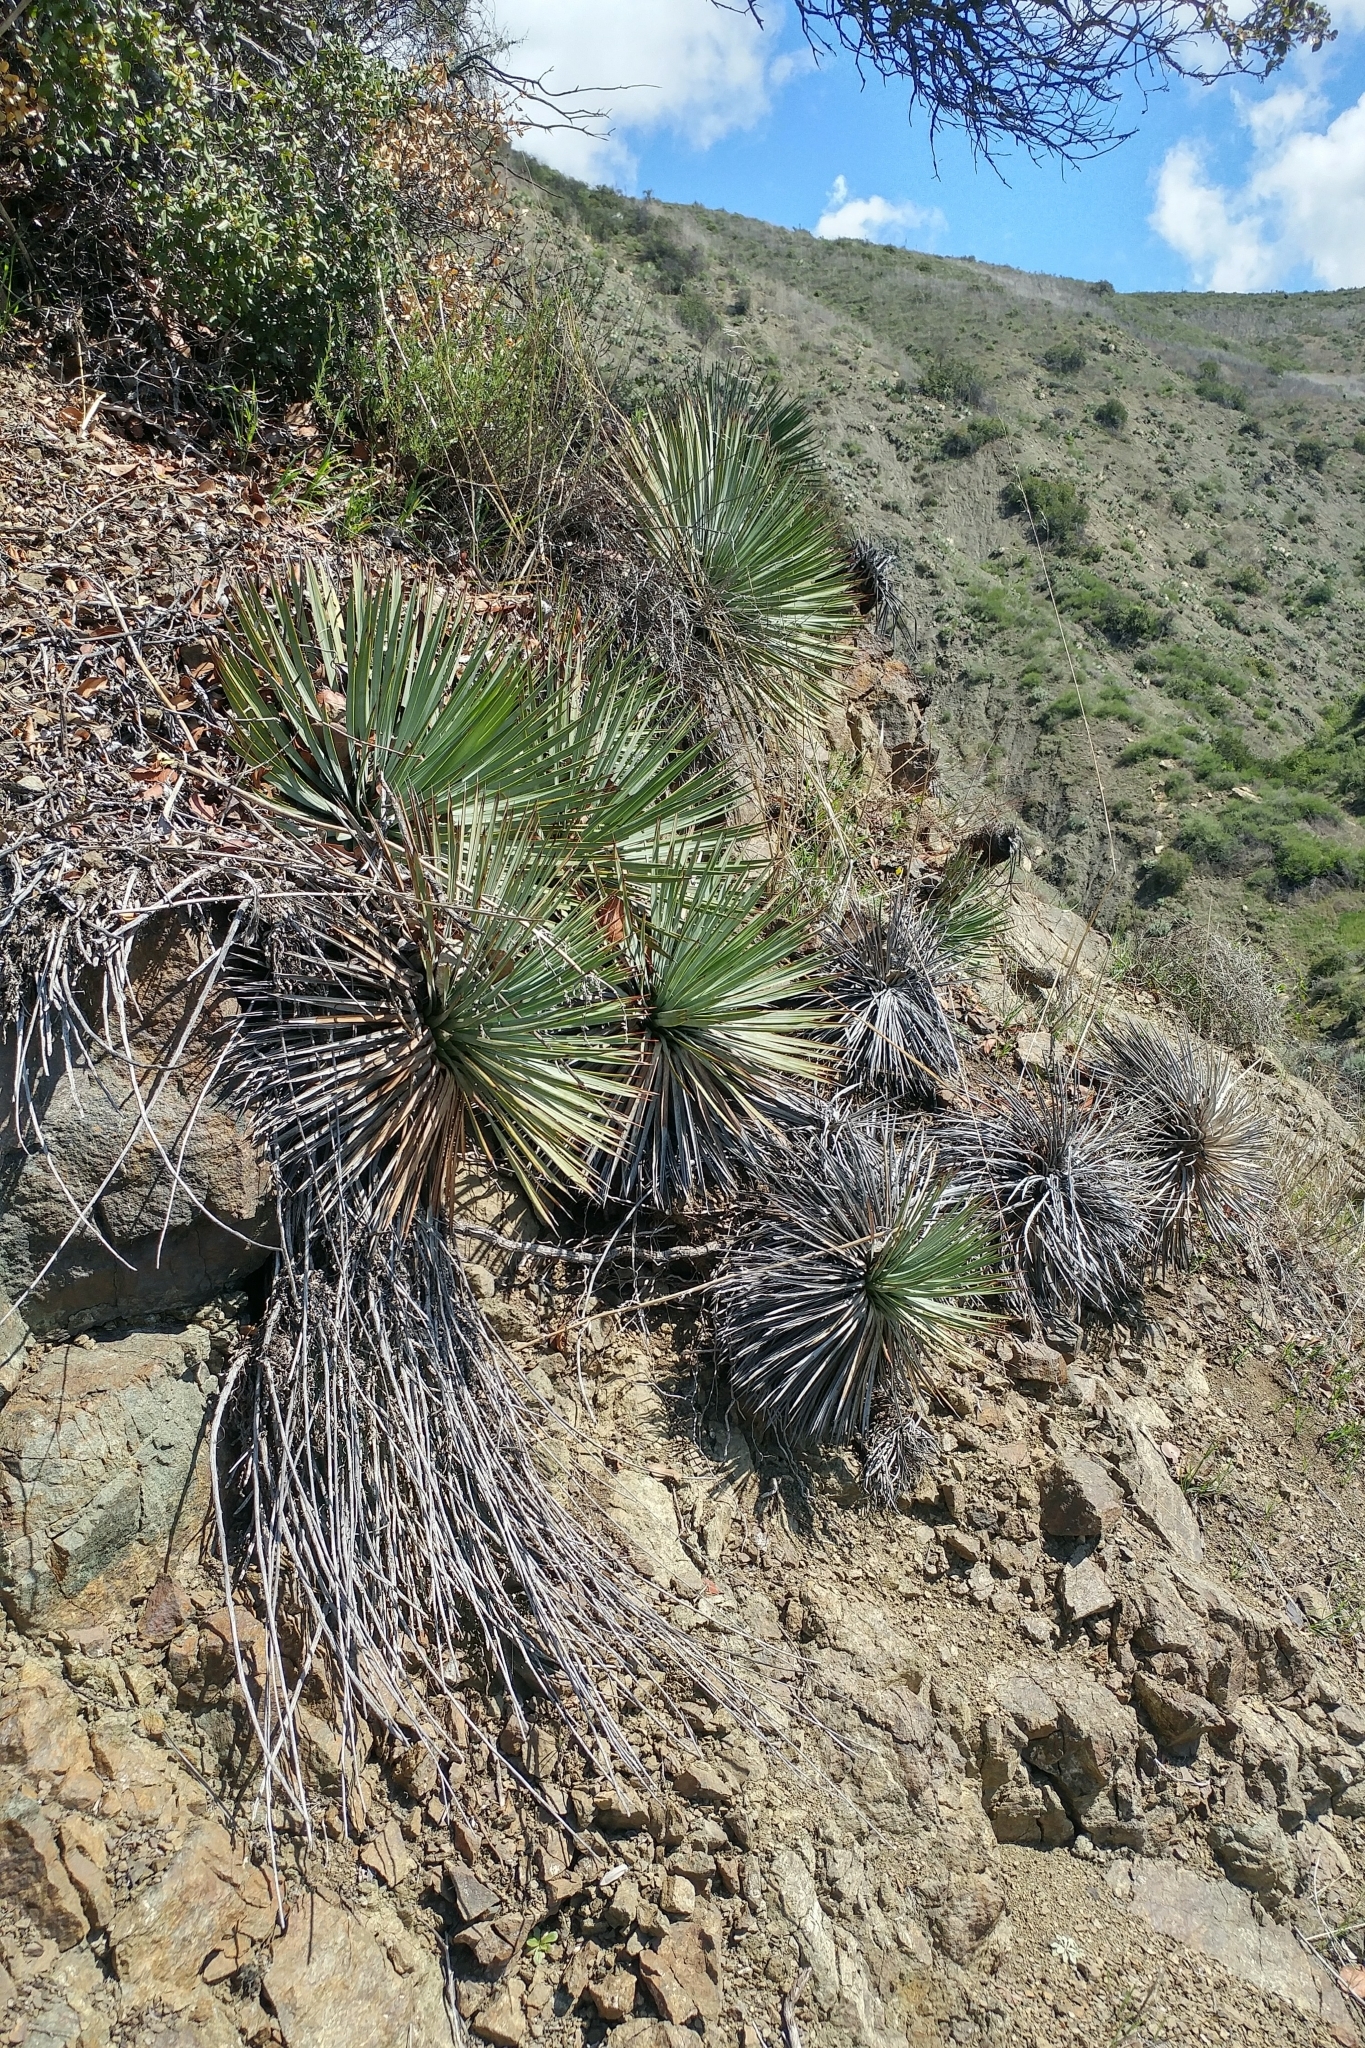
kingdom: Plantae
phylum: Tracheophyta
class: Liliopsida
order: Asparagales
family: Asparagaceae
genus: Hesperoyucca
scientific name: Hesperoyucca whipplei
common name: Our lord's-candle
